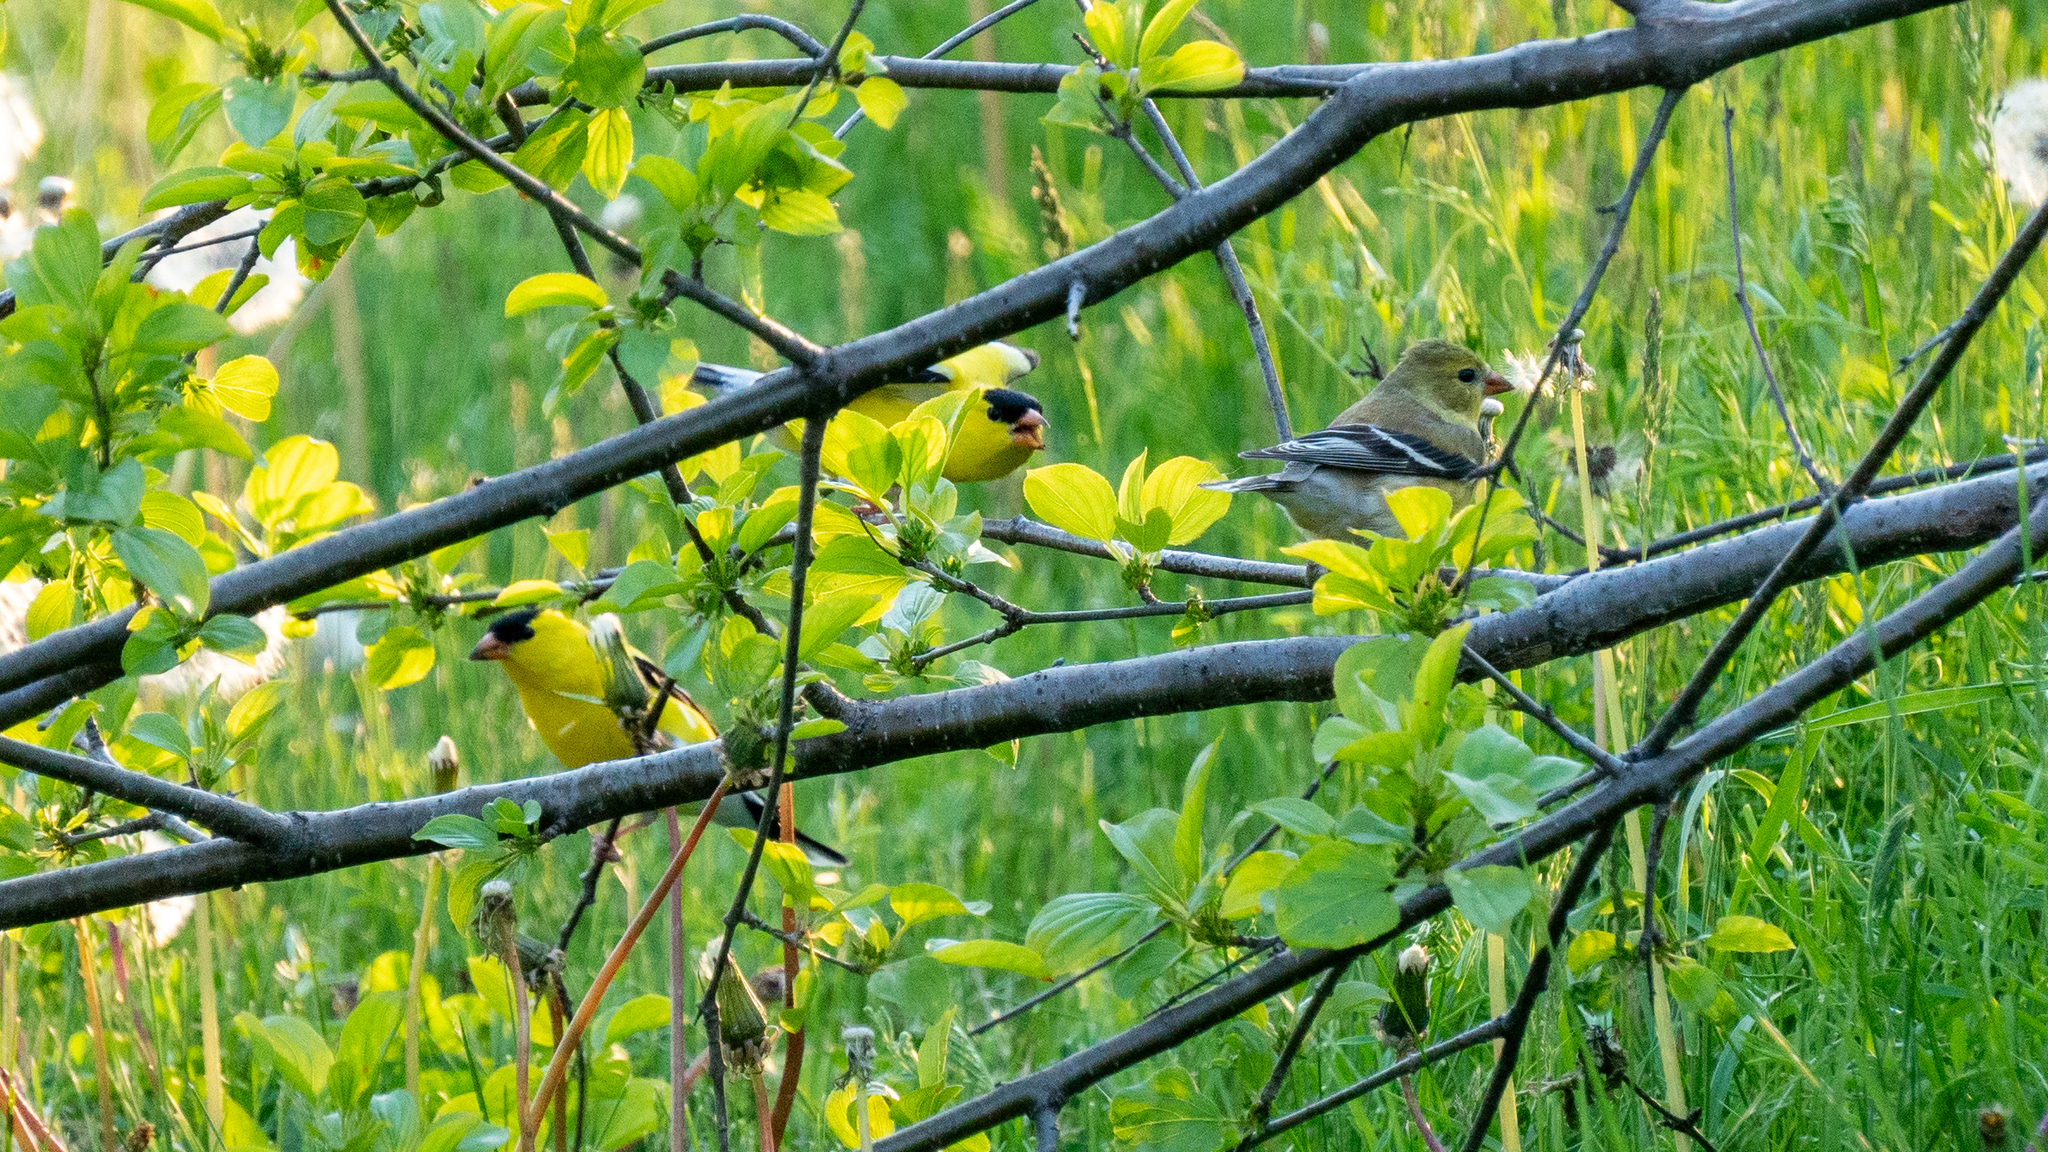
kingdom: Animalia
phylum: Chordata
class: Aves
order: Passeriformes
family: Fringillidae
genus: Spinus
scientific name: Spinus tristis
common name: American goldfinch
